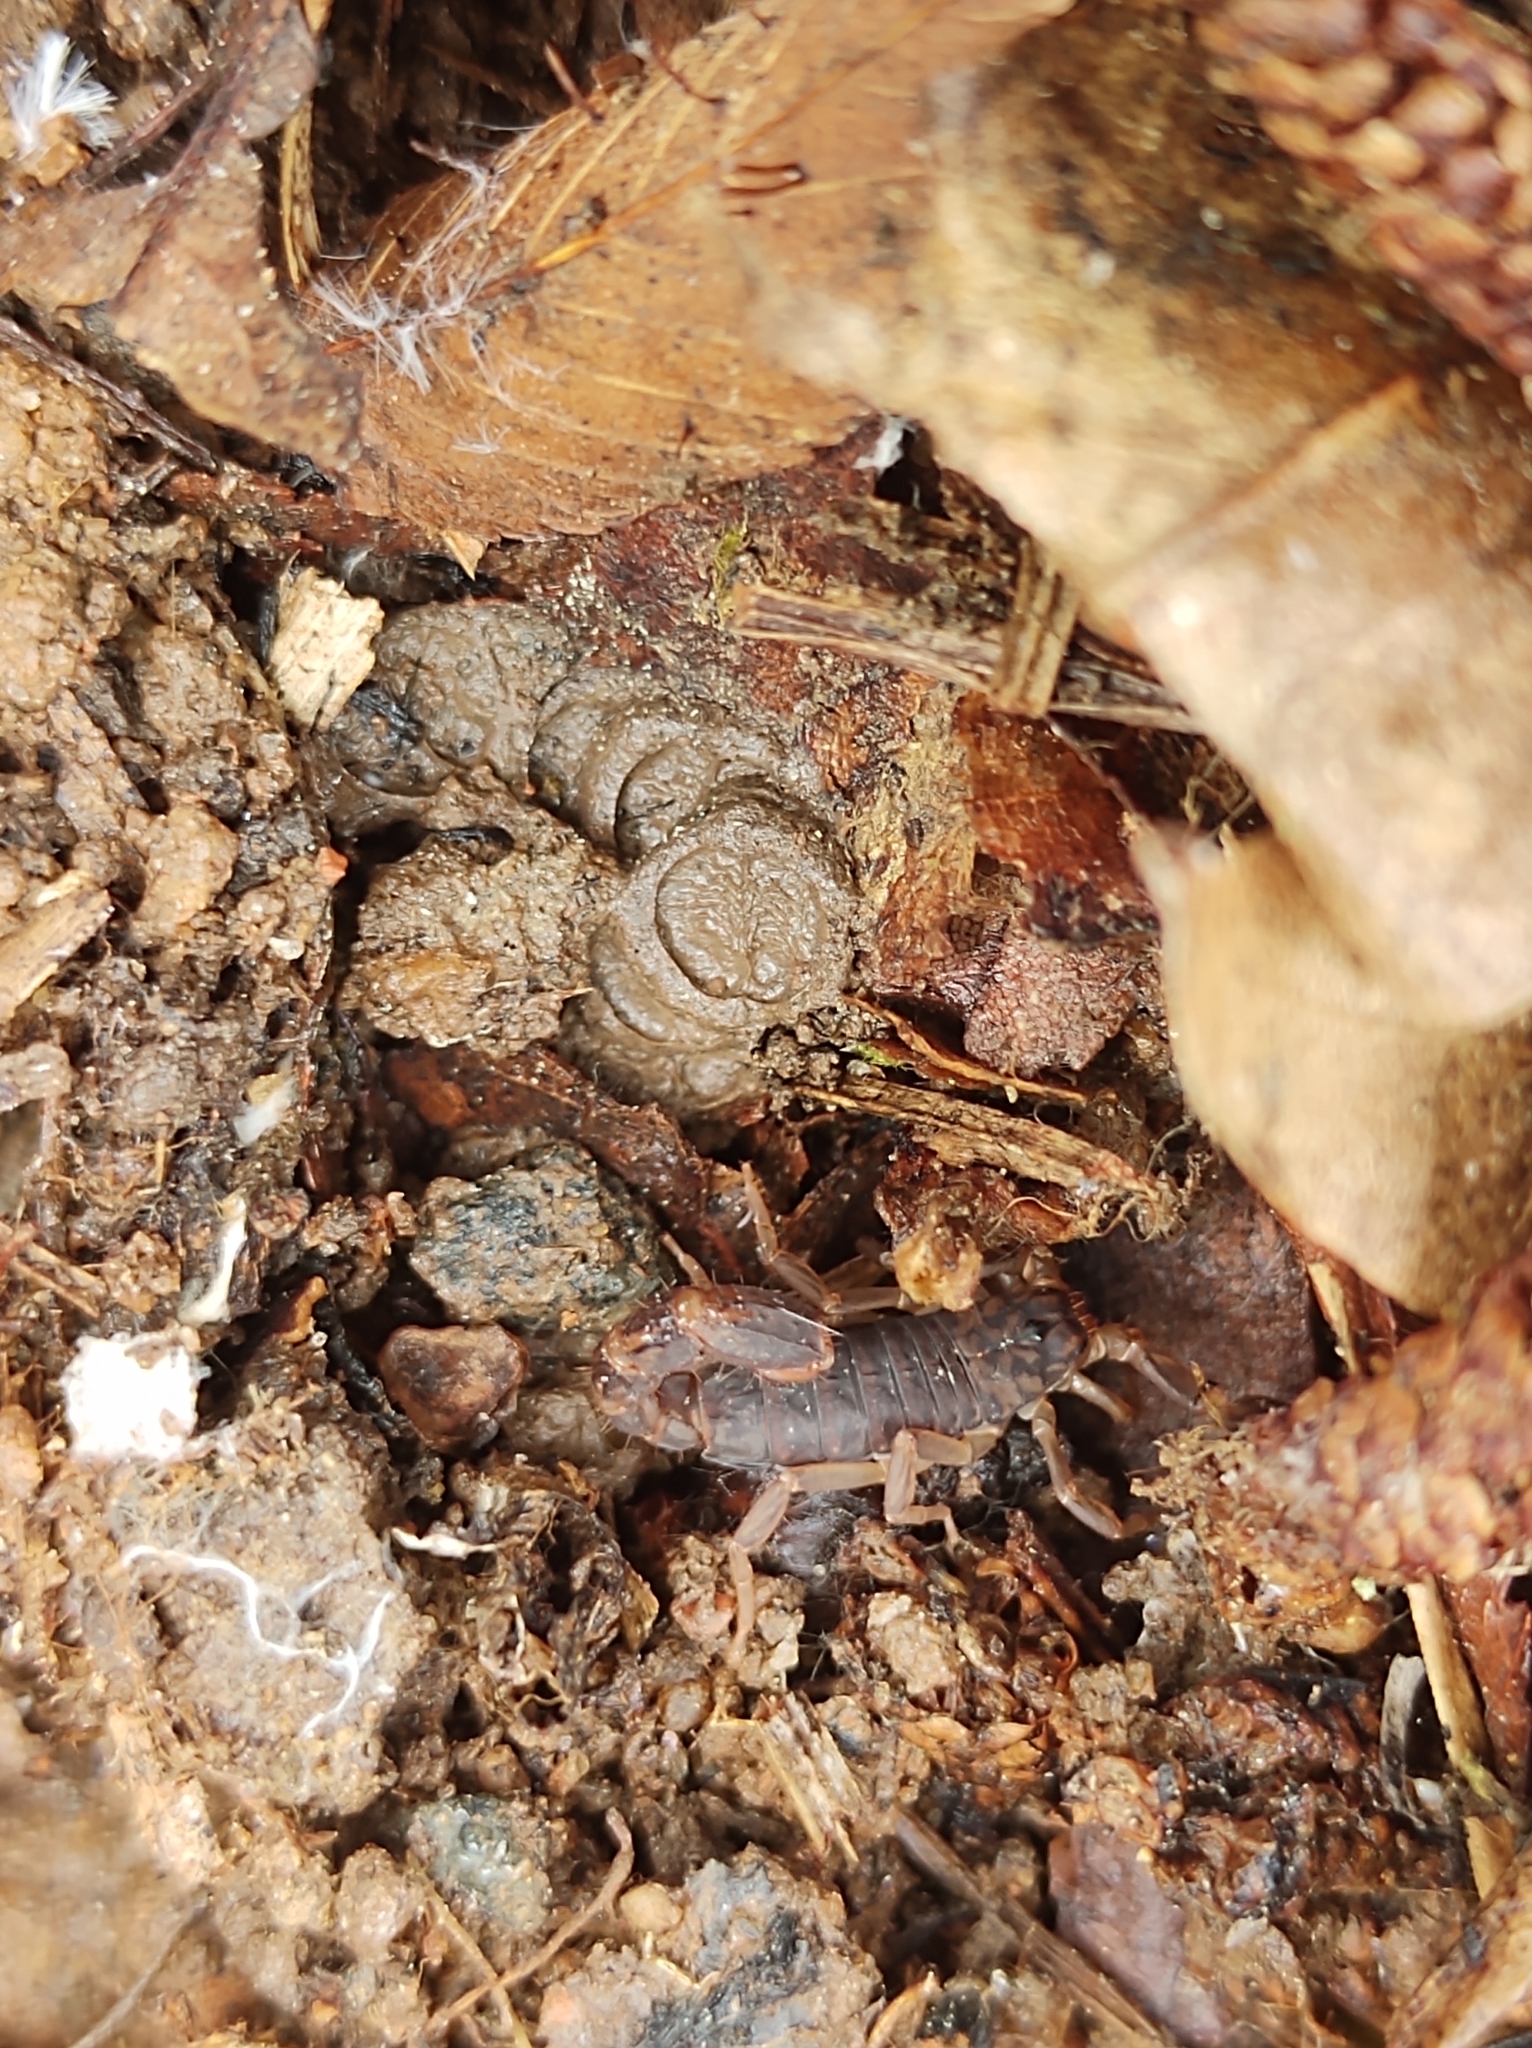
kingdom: Animalia
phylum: Arthropoda
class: Arachnida
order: Scorpiones
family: Vaejovidae
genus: Vaejovis
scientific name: Vaejovis carolinianus
